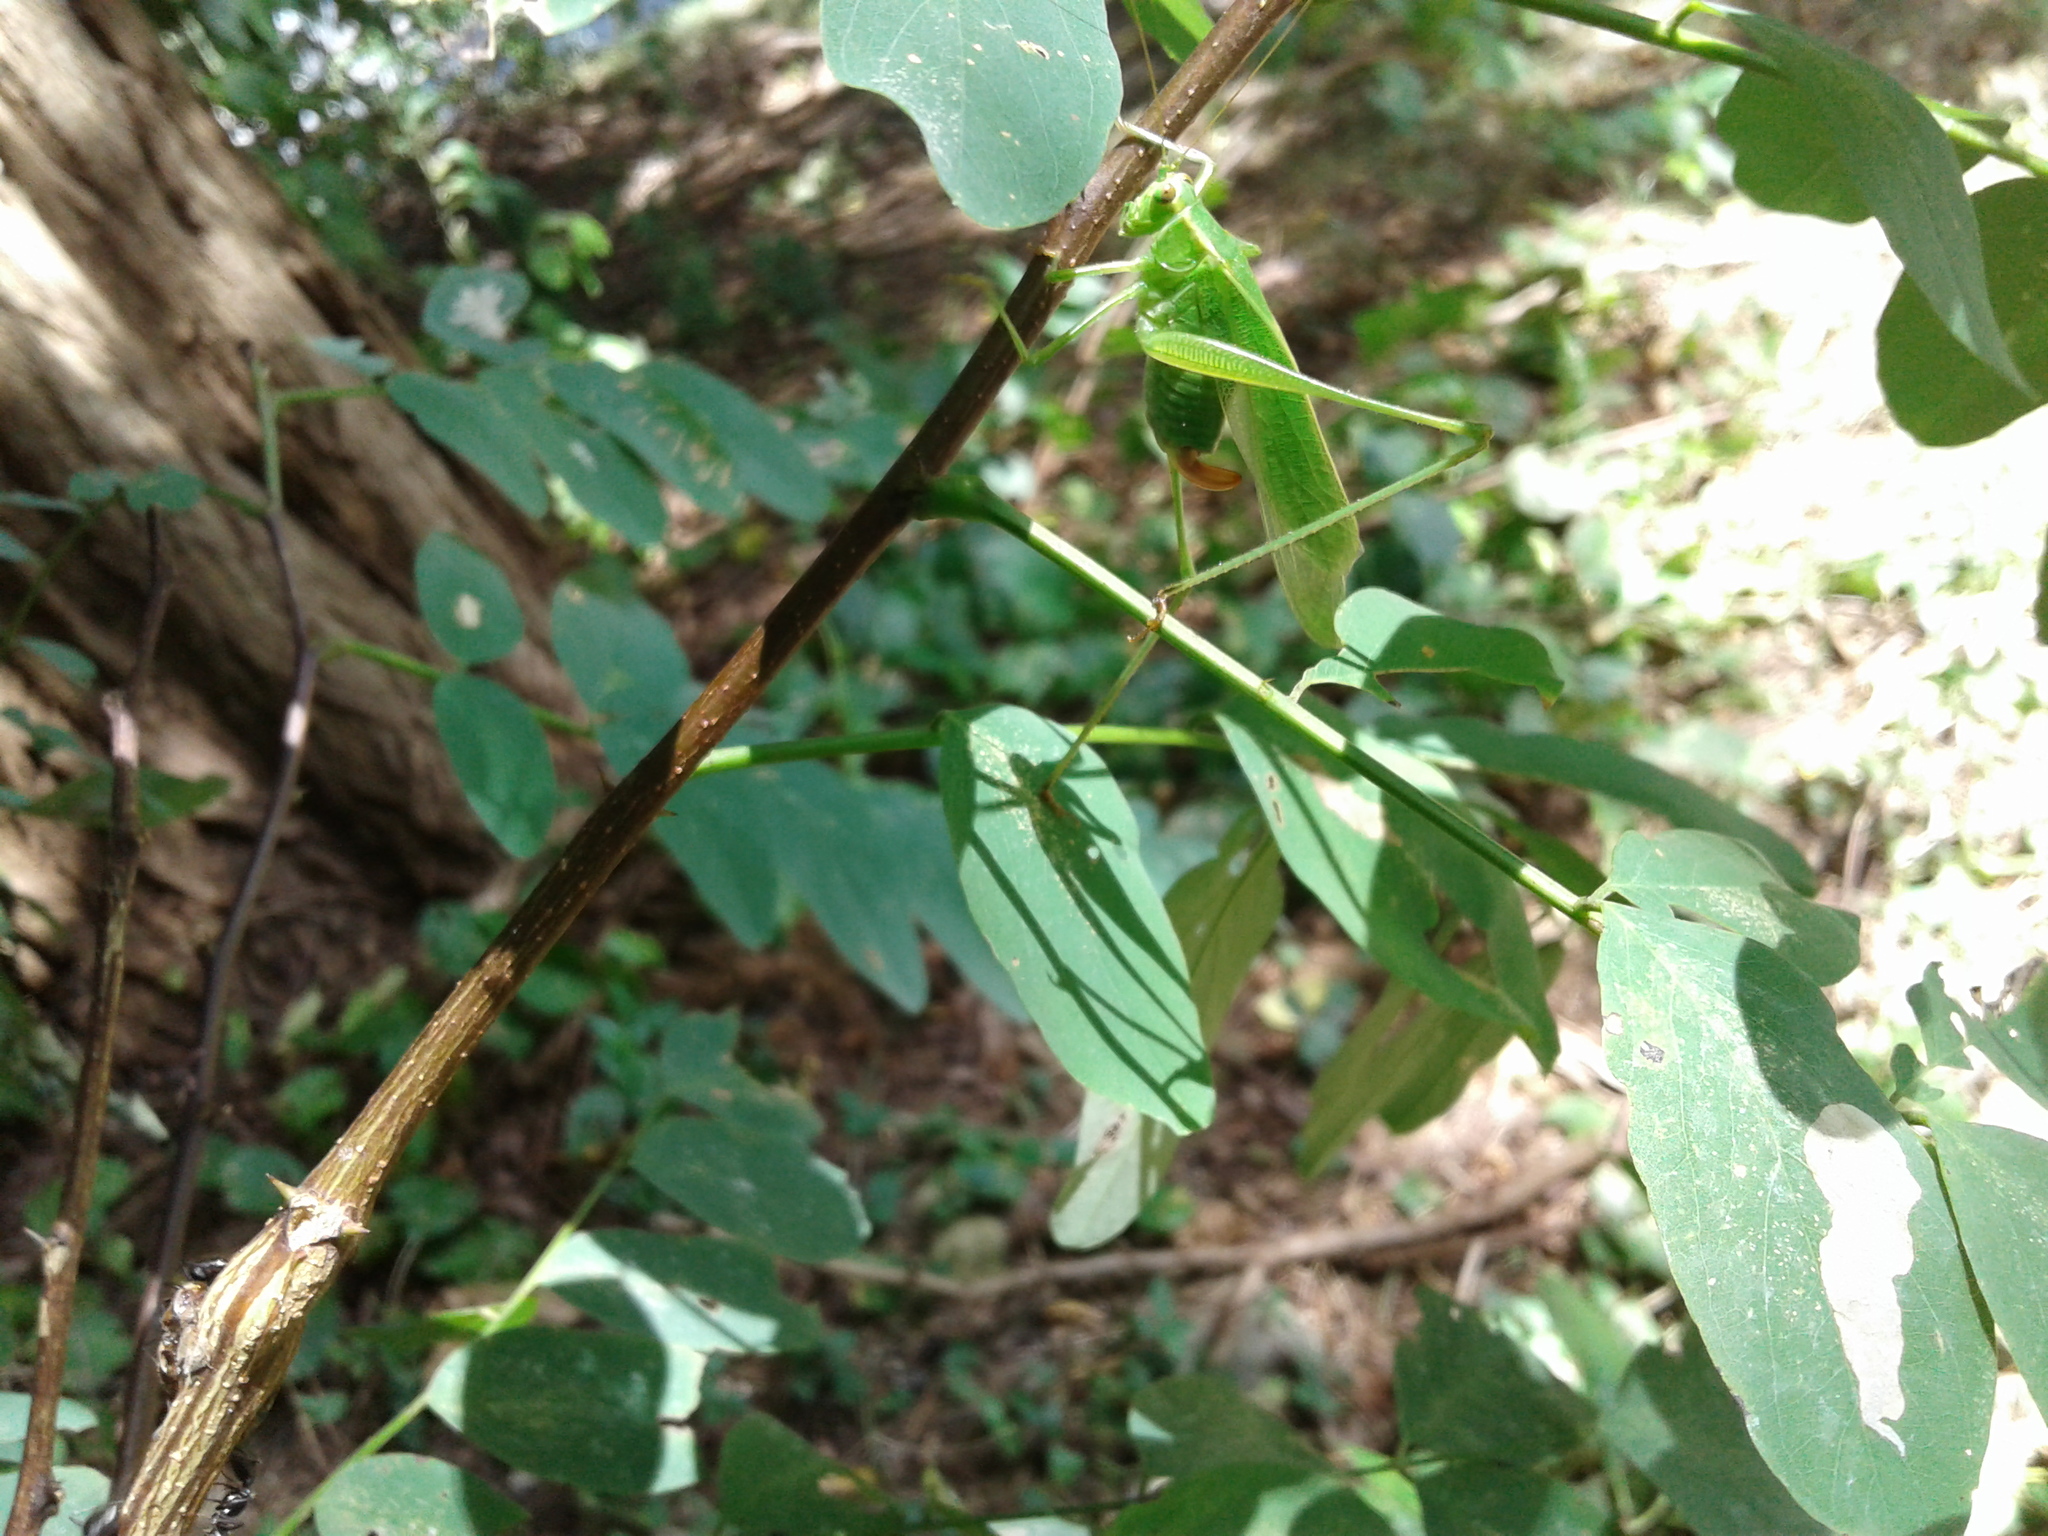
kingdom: Animalia
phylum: Arthropoda
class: Insecta
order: Orthoptera
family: Tettigoniidae
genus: Scudderia
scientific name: Scudderia furcata
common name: Fork-tailed bush katydid
